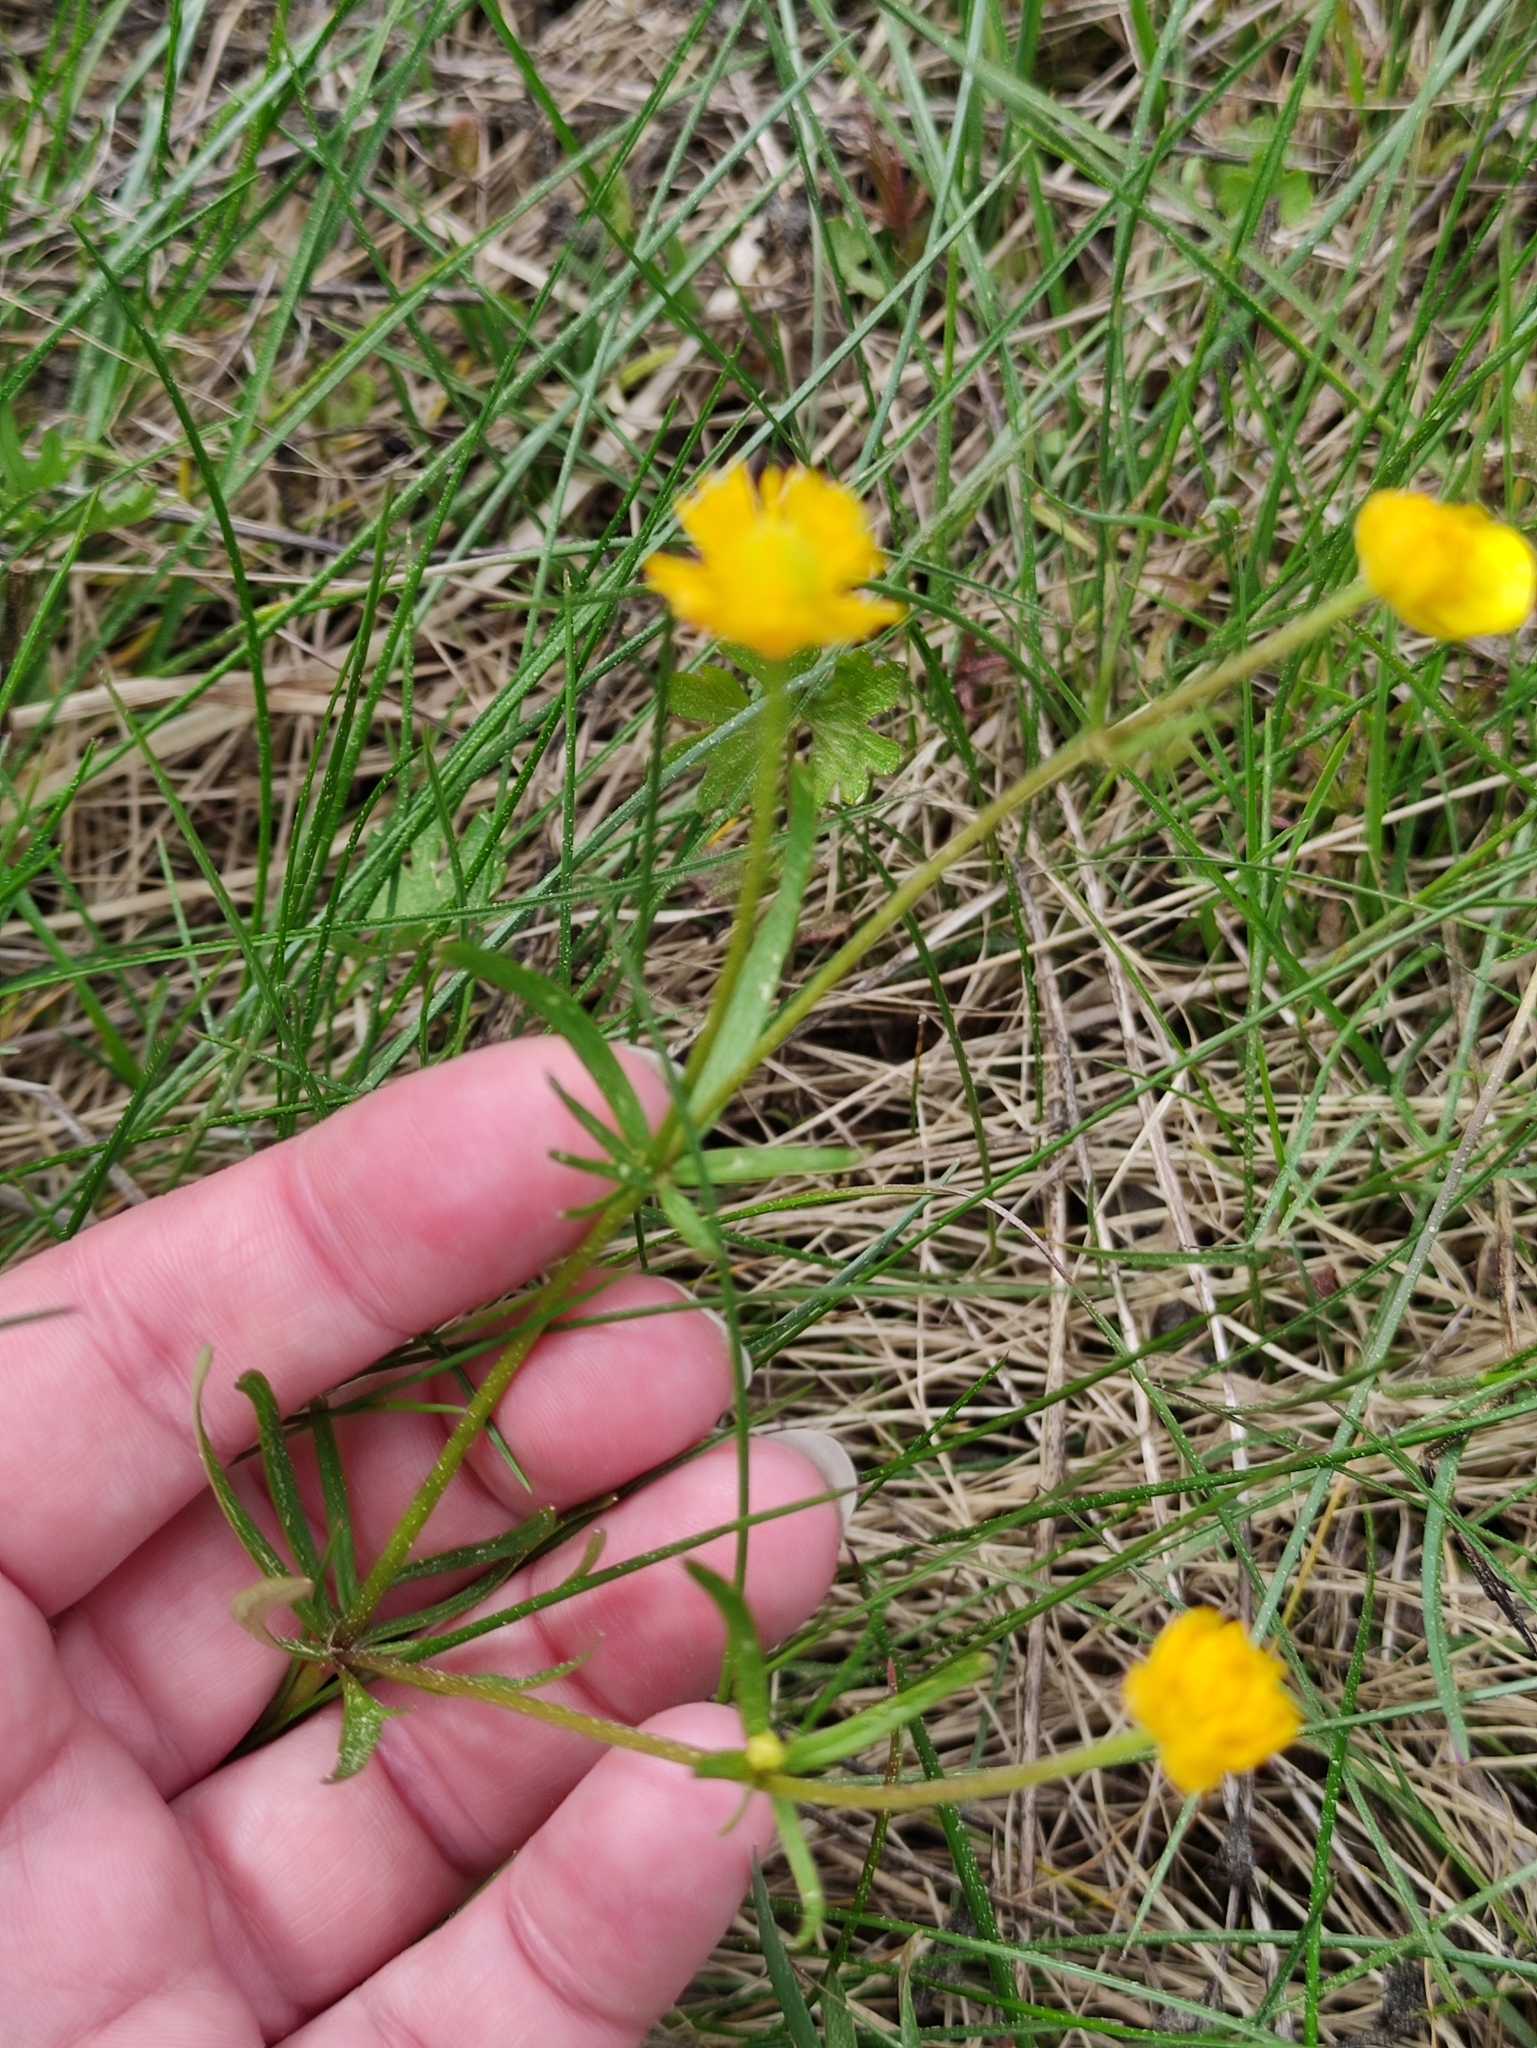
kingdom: Plantae
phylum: Tracheophyta
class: Magnoliopsida
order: Ranunculales
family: Ranunculaceae
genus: Ranunculus
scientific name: Ranunculus auricomus
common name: Goldilocks buttercup
